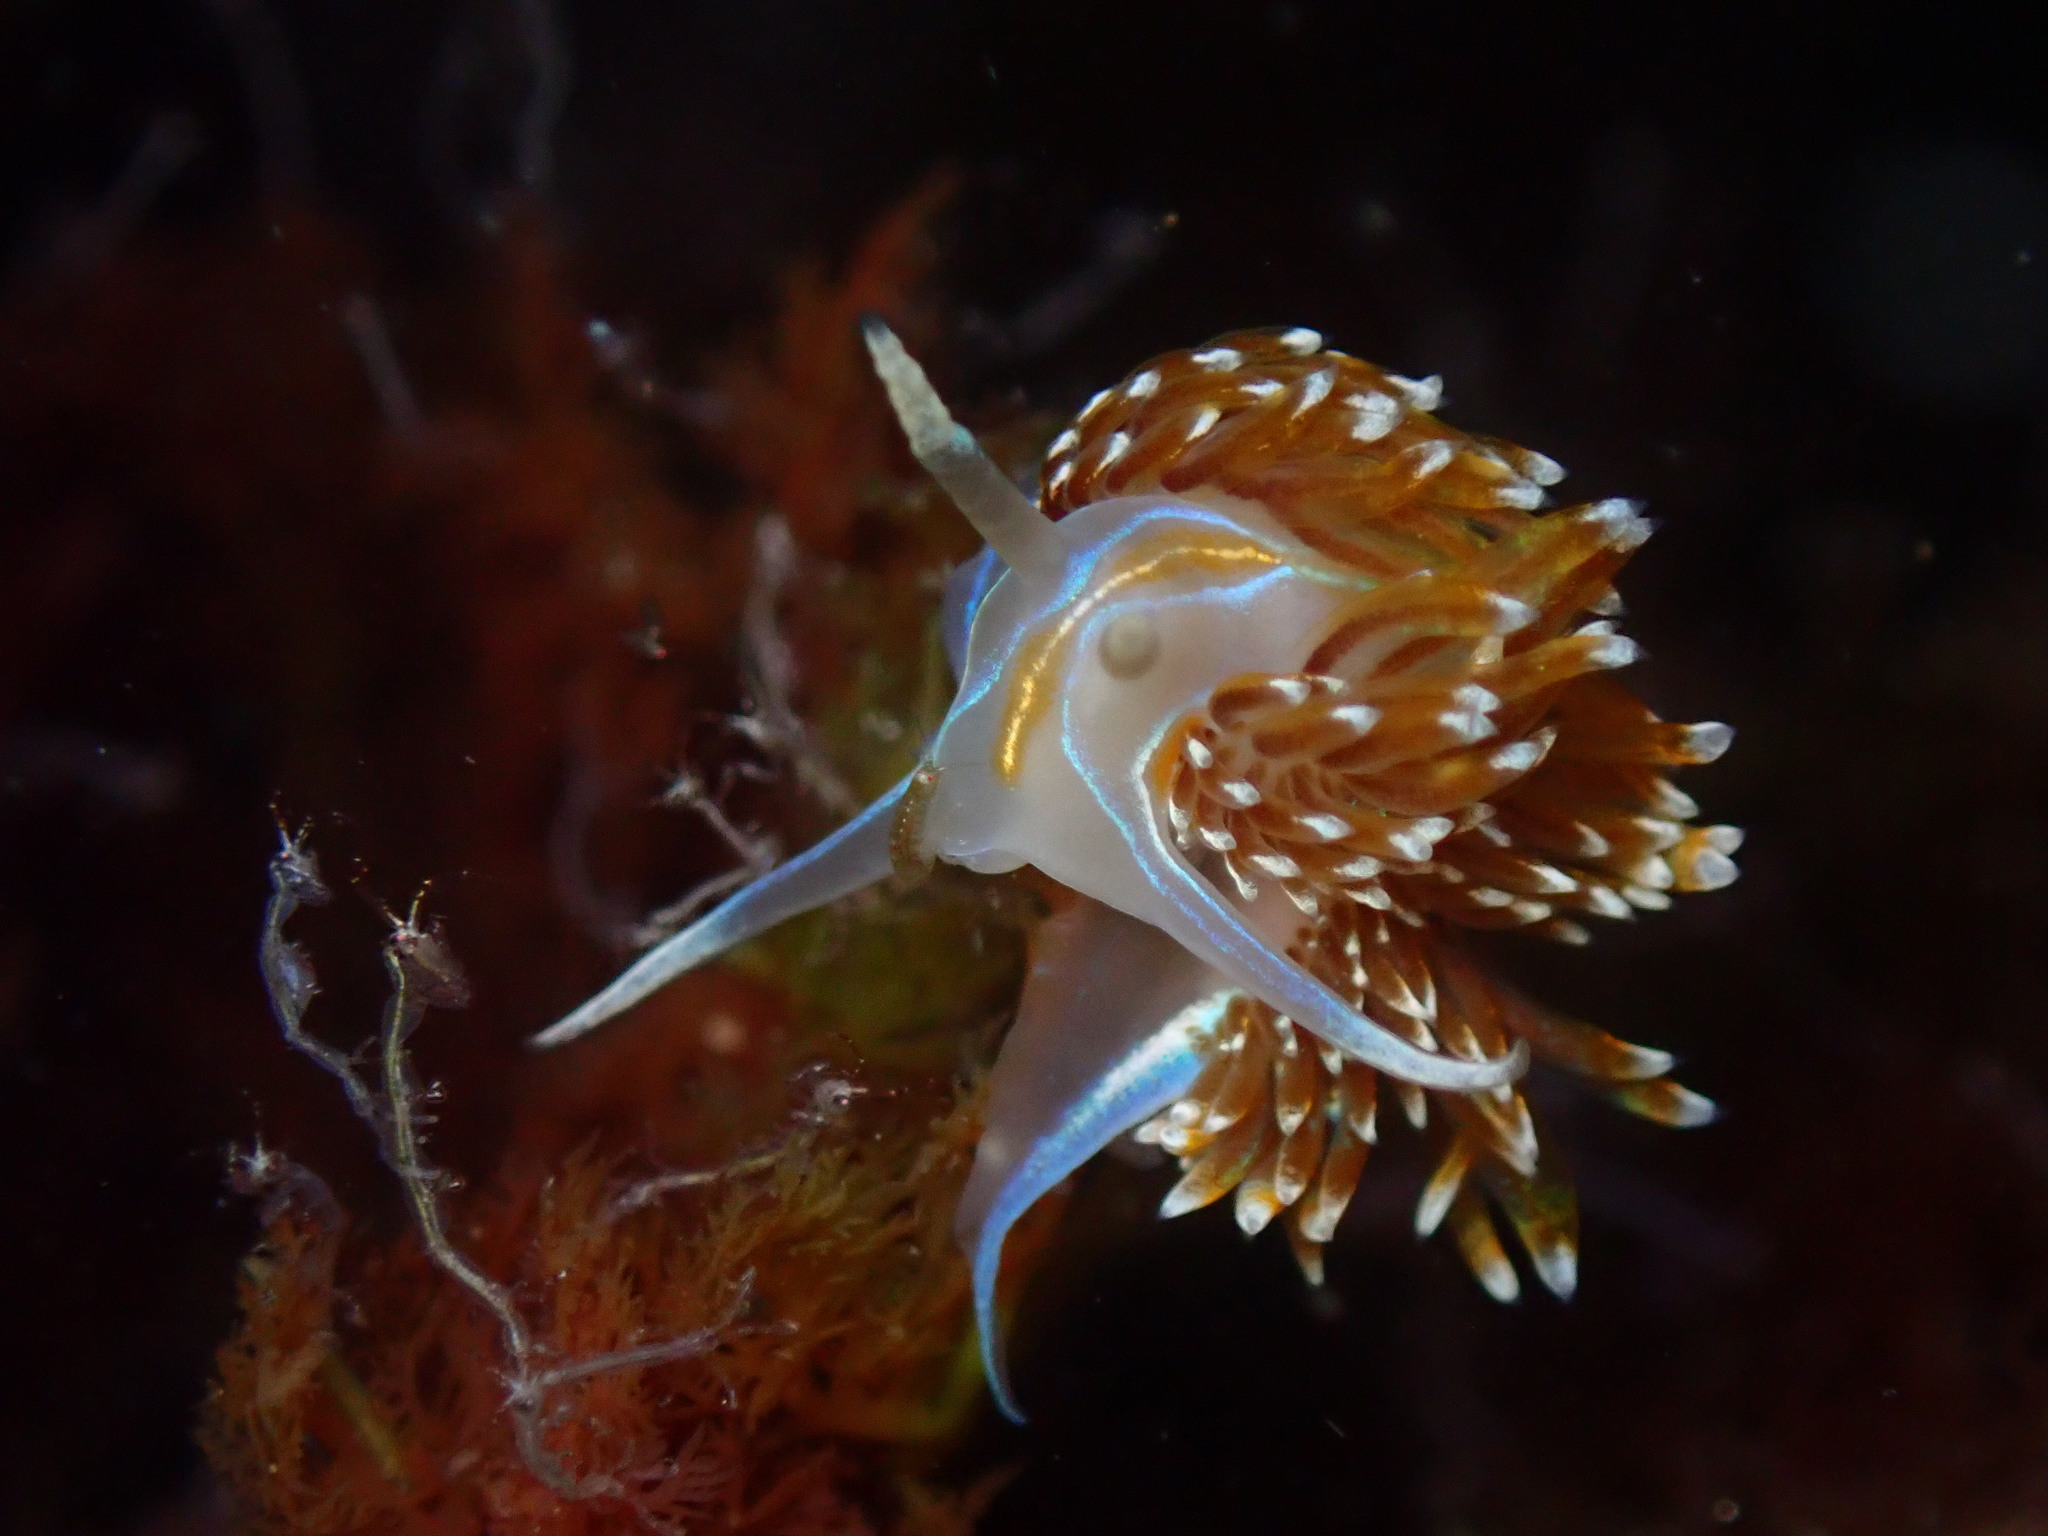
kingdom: Animalia
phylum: Mollusca
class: Gastropoda
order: Nudibranchia
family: Myrrhinidae
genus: Hermissenda
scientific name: Hermissenda opalescens
